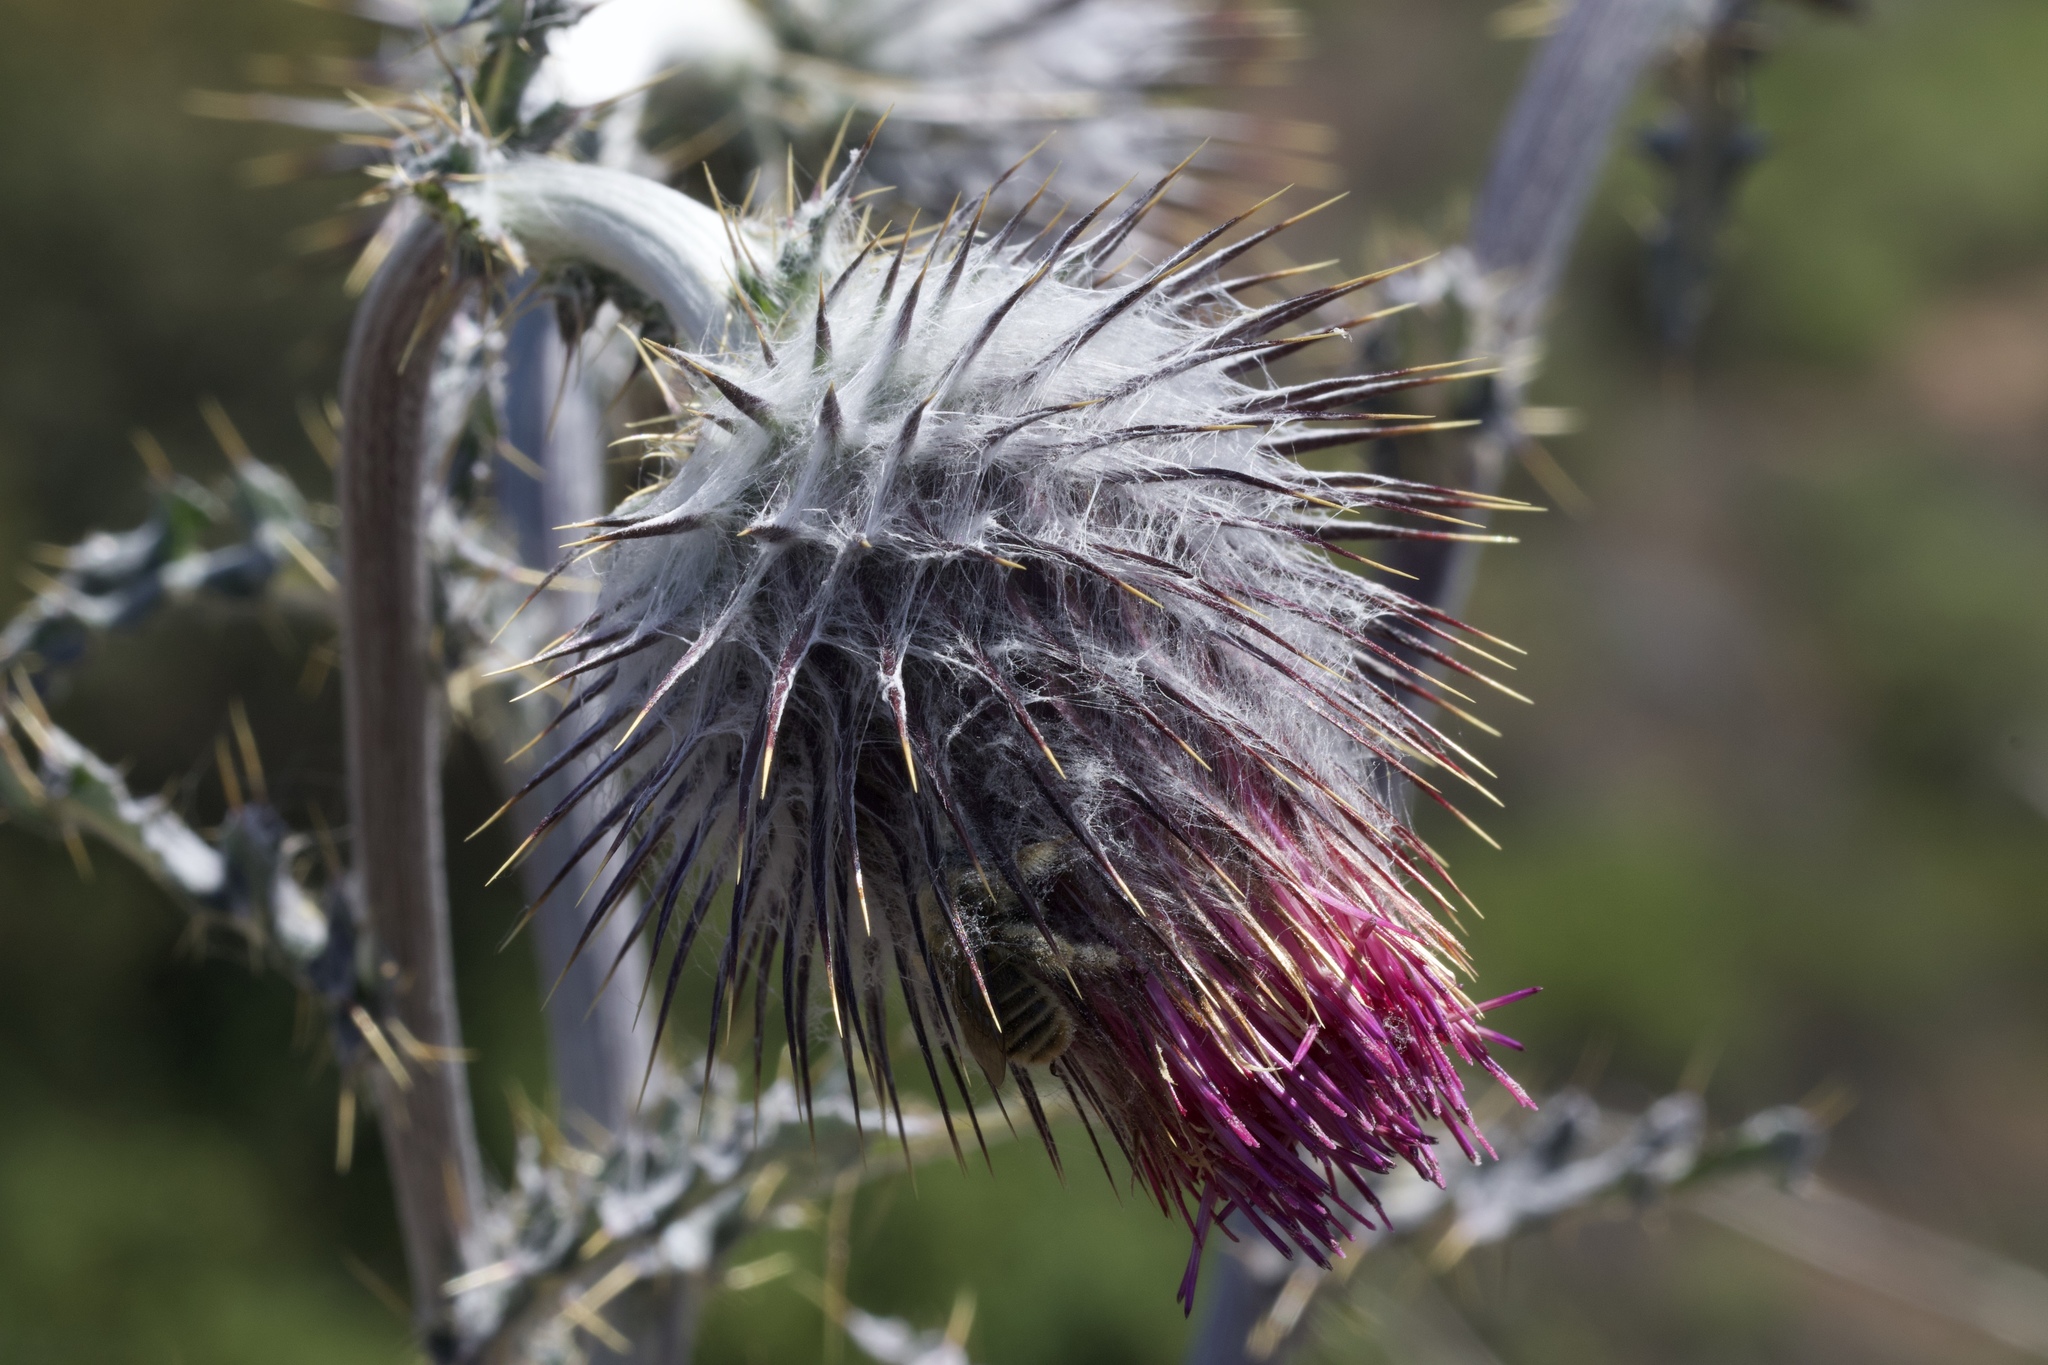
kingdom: Plantae
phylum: Tracheophyta
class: Magnoliopsida
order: Asterales
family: Asteraceae
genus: Cirsium
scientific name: Cirsium occidentale
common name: Western thistle
